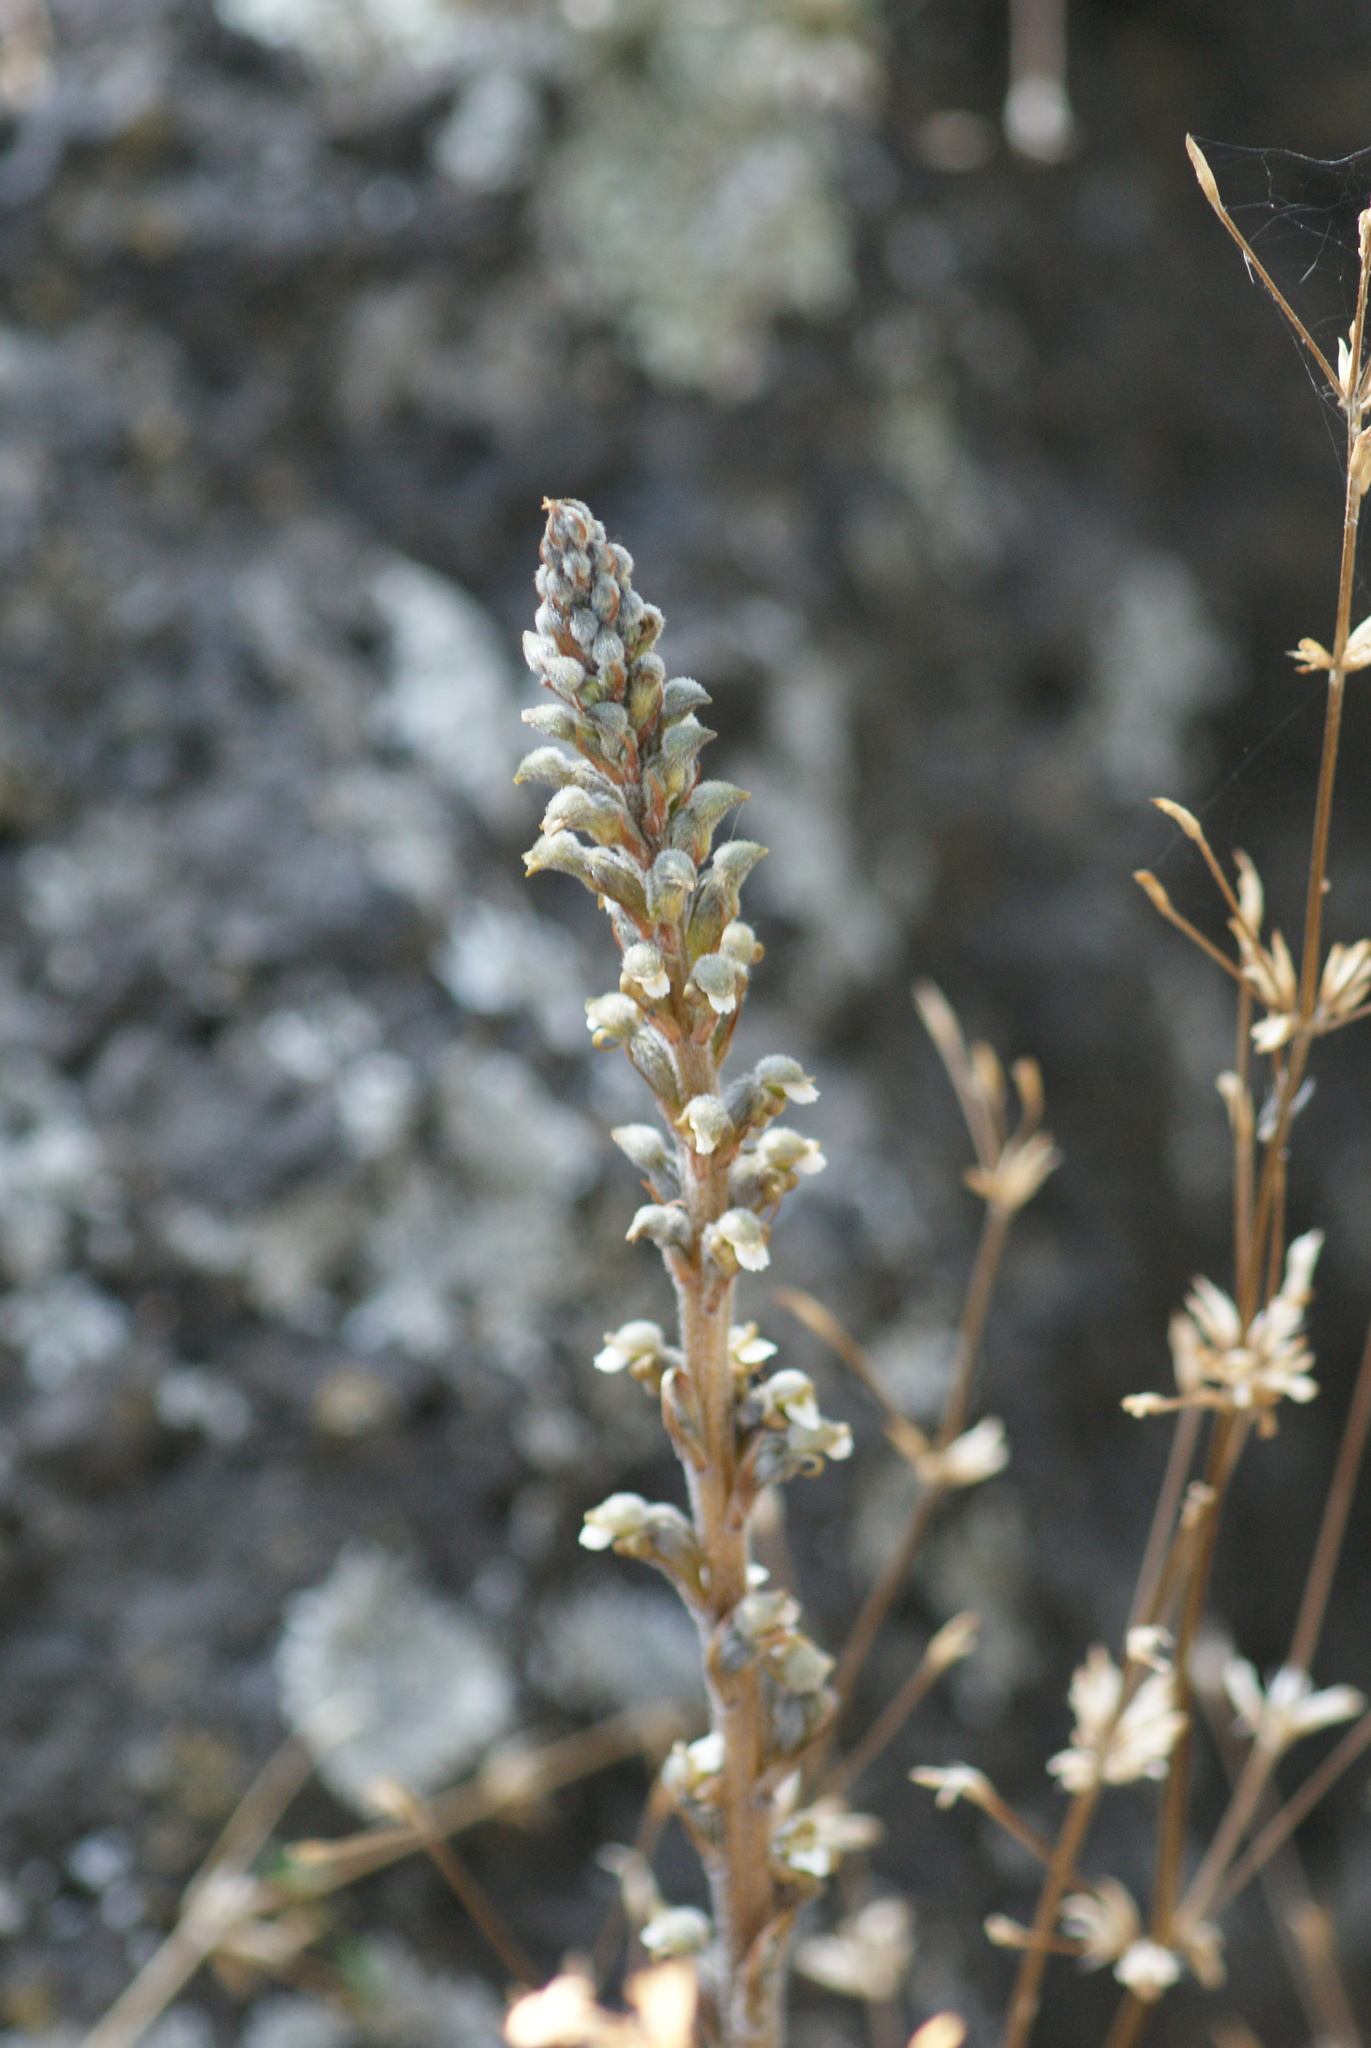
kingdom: Plantae
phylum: Tracheophyta
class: Liliopsida
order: Asparagales
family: Orchidaceae
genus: Sarcoglottis
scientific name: Sarcoglottis schaffneri
